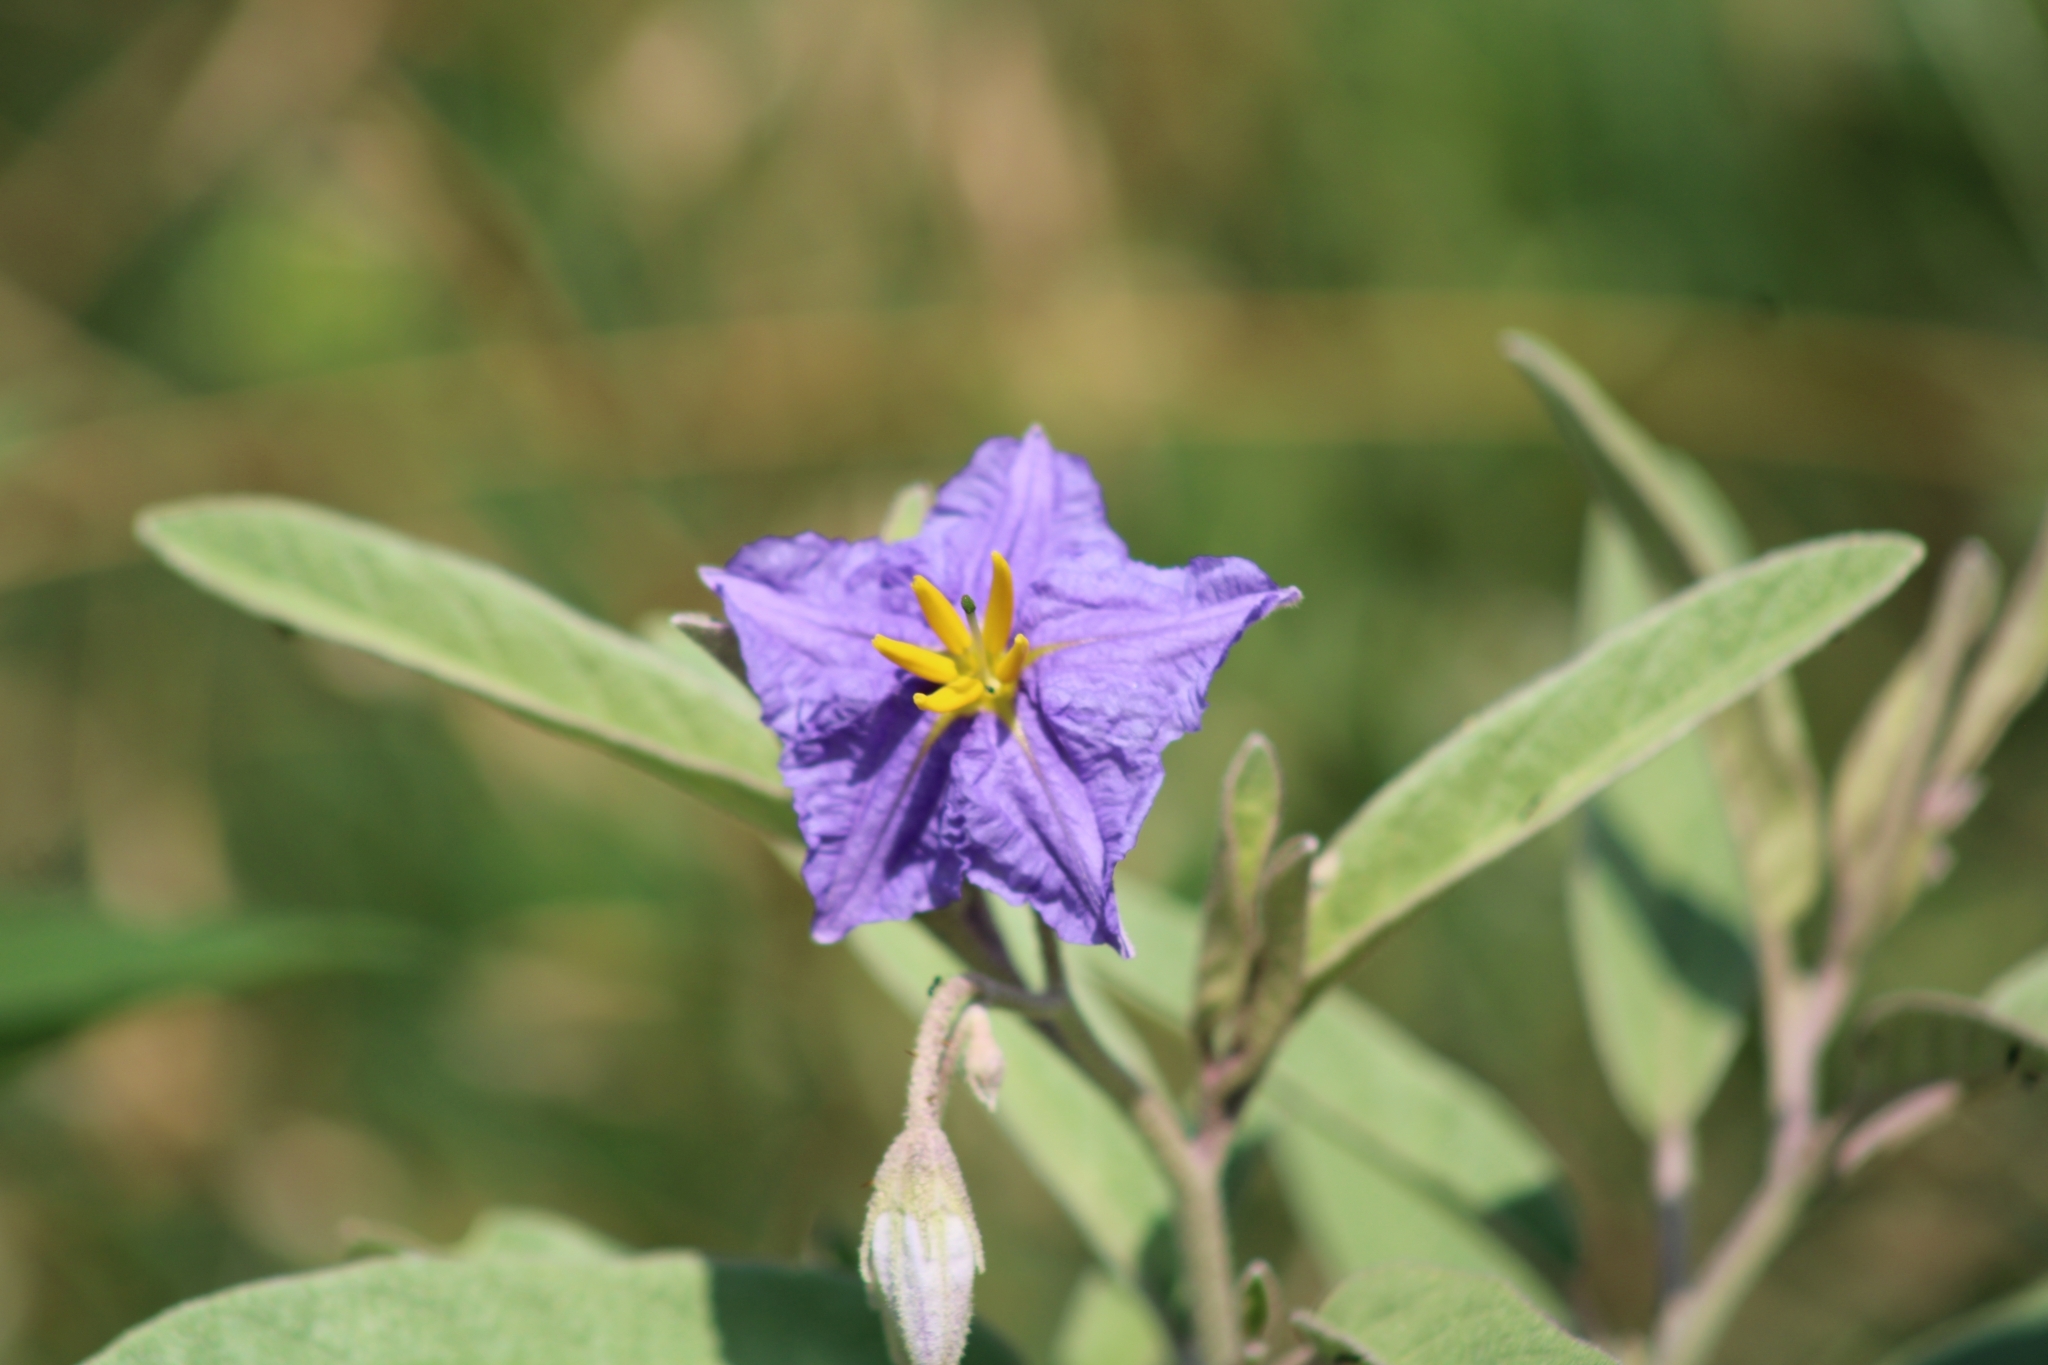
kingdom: Plantae
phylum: Tracheophyta
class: Magnoliopsida
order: Solanales
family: Solanaceae
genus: Solanum
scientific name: Solanum elaeagnifolium
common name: Silverleaf nightshade
